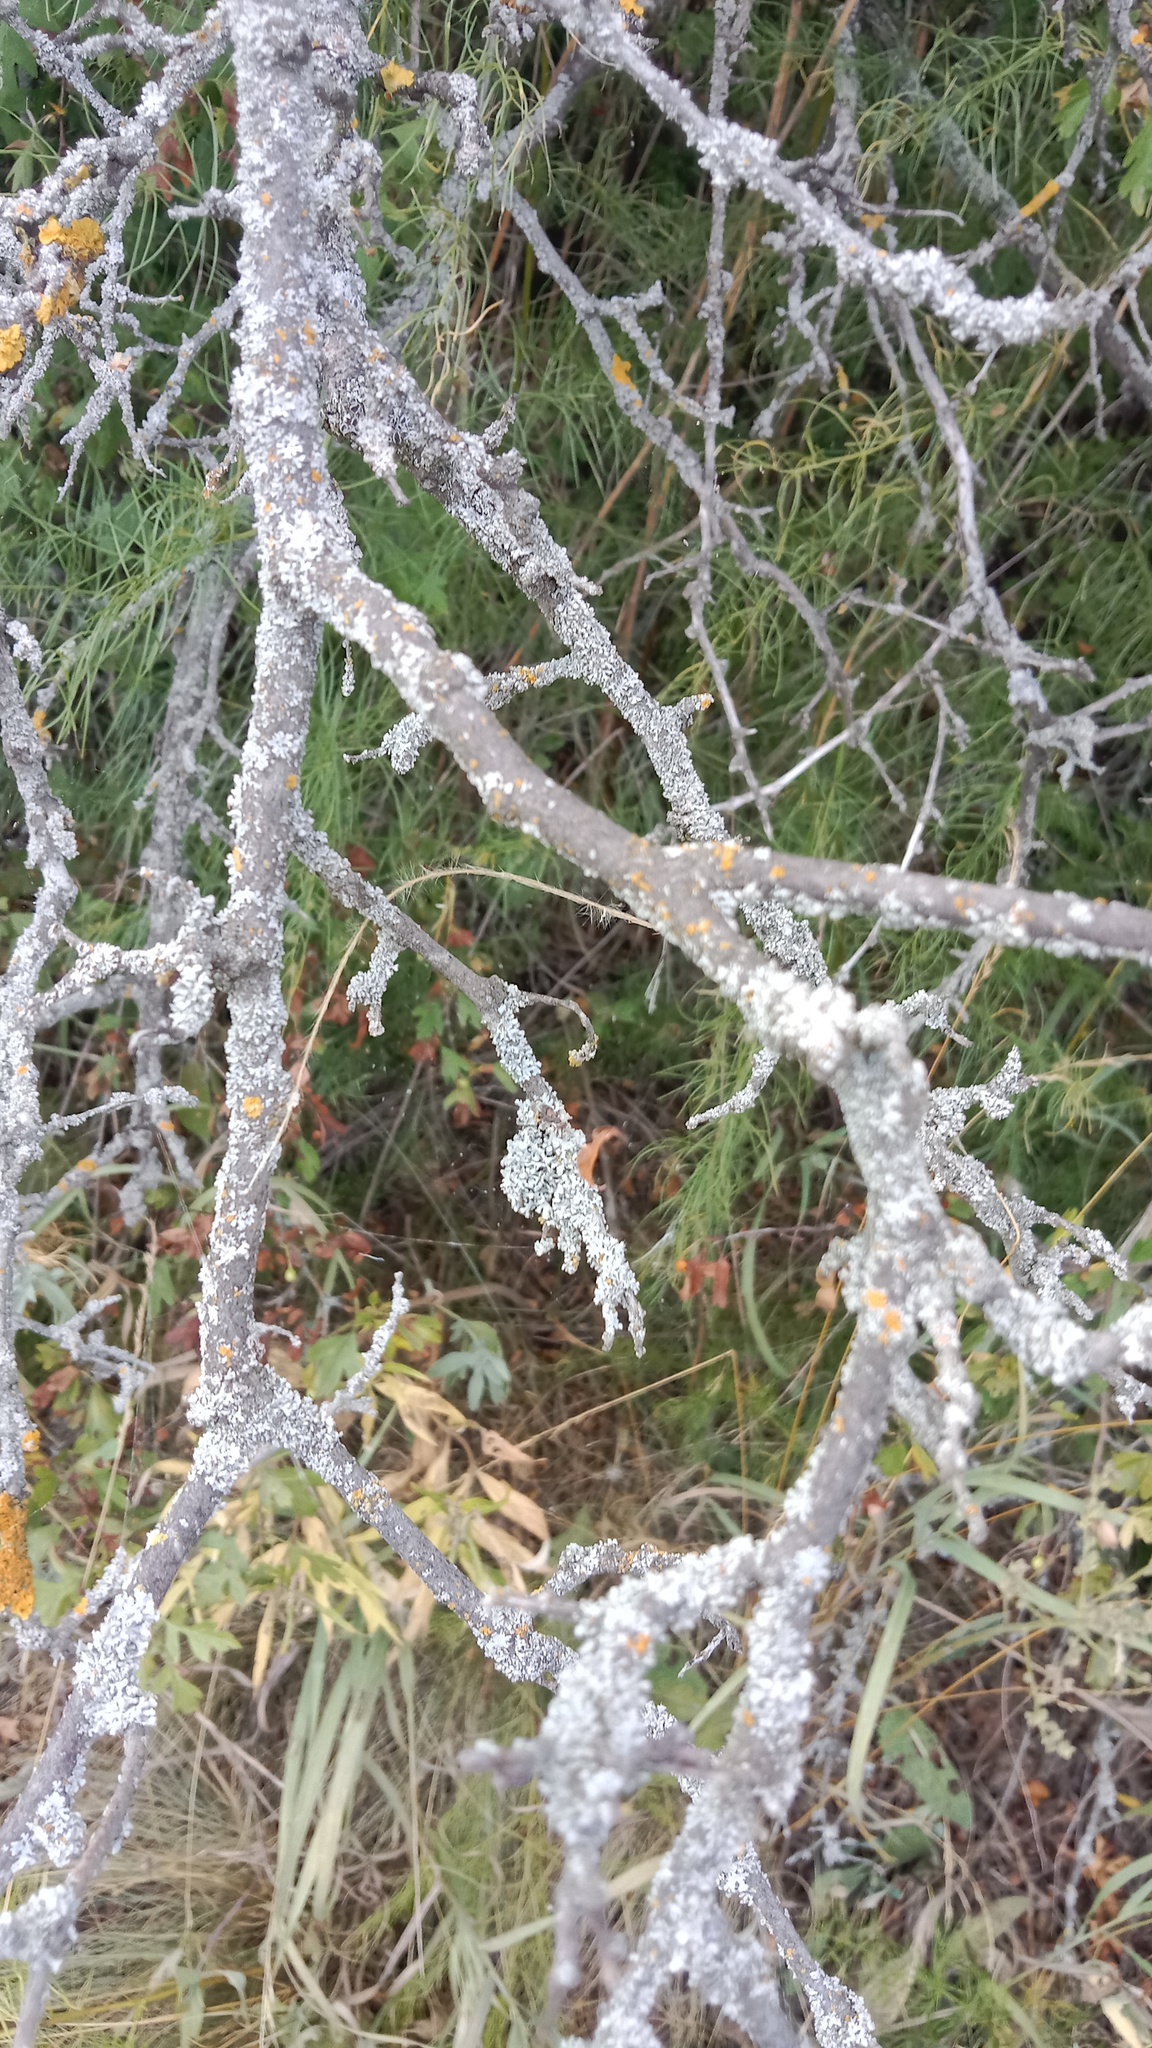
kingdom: Fungi
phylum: Ascomycota
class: Lecanoromycetes
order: Caliciales
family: Physciaceae
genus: Physcia
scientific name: Physcia adscendens
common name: Hooded rosette lichen
